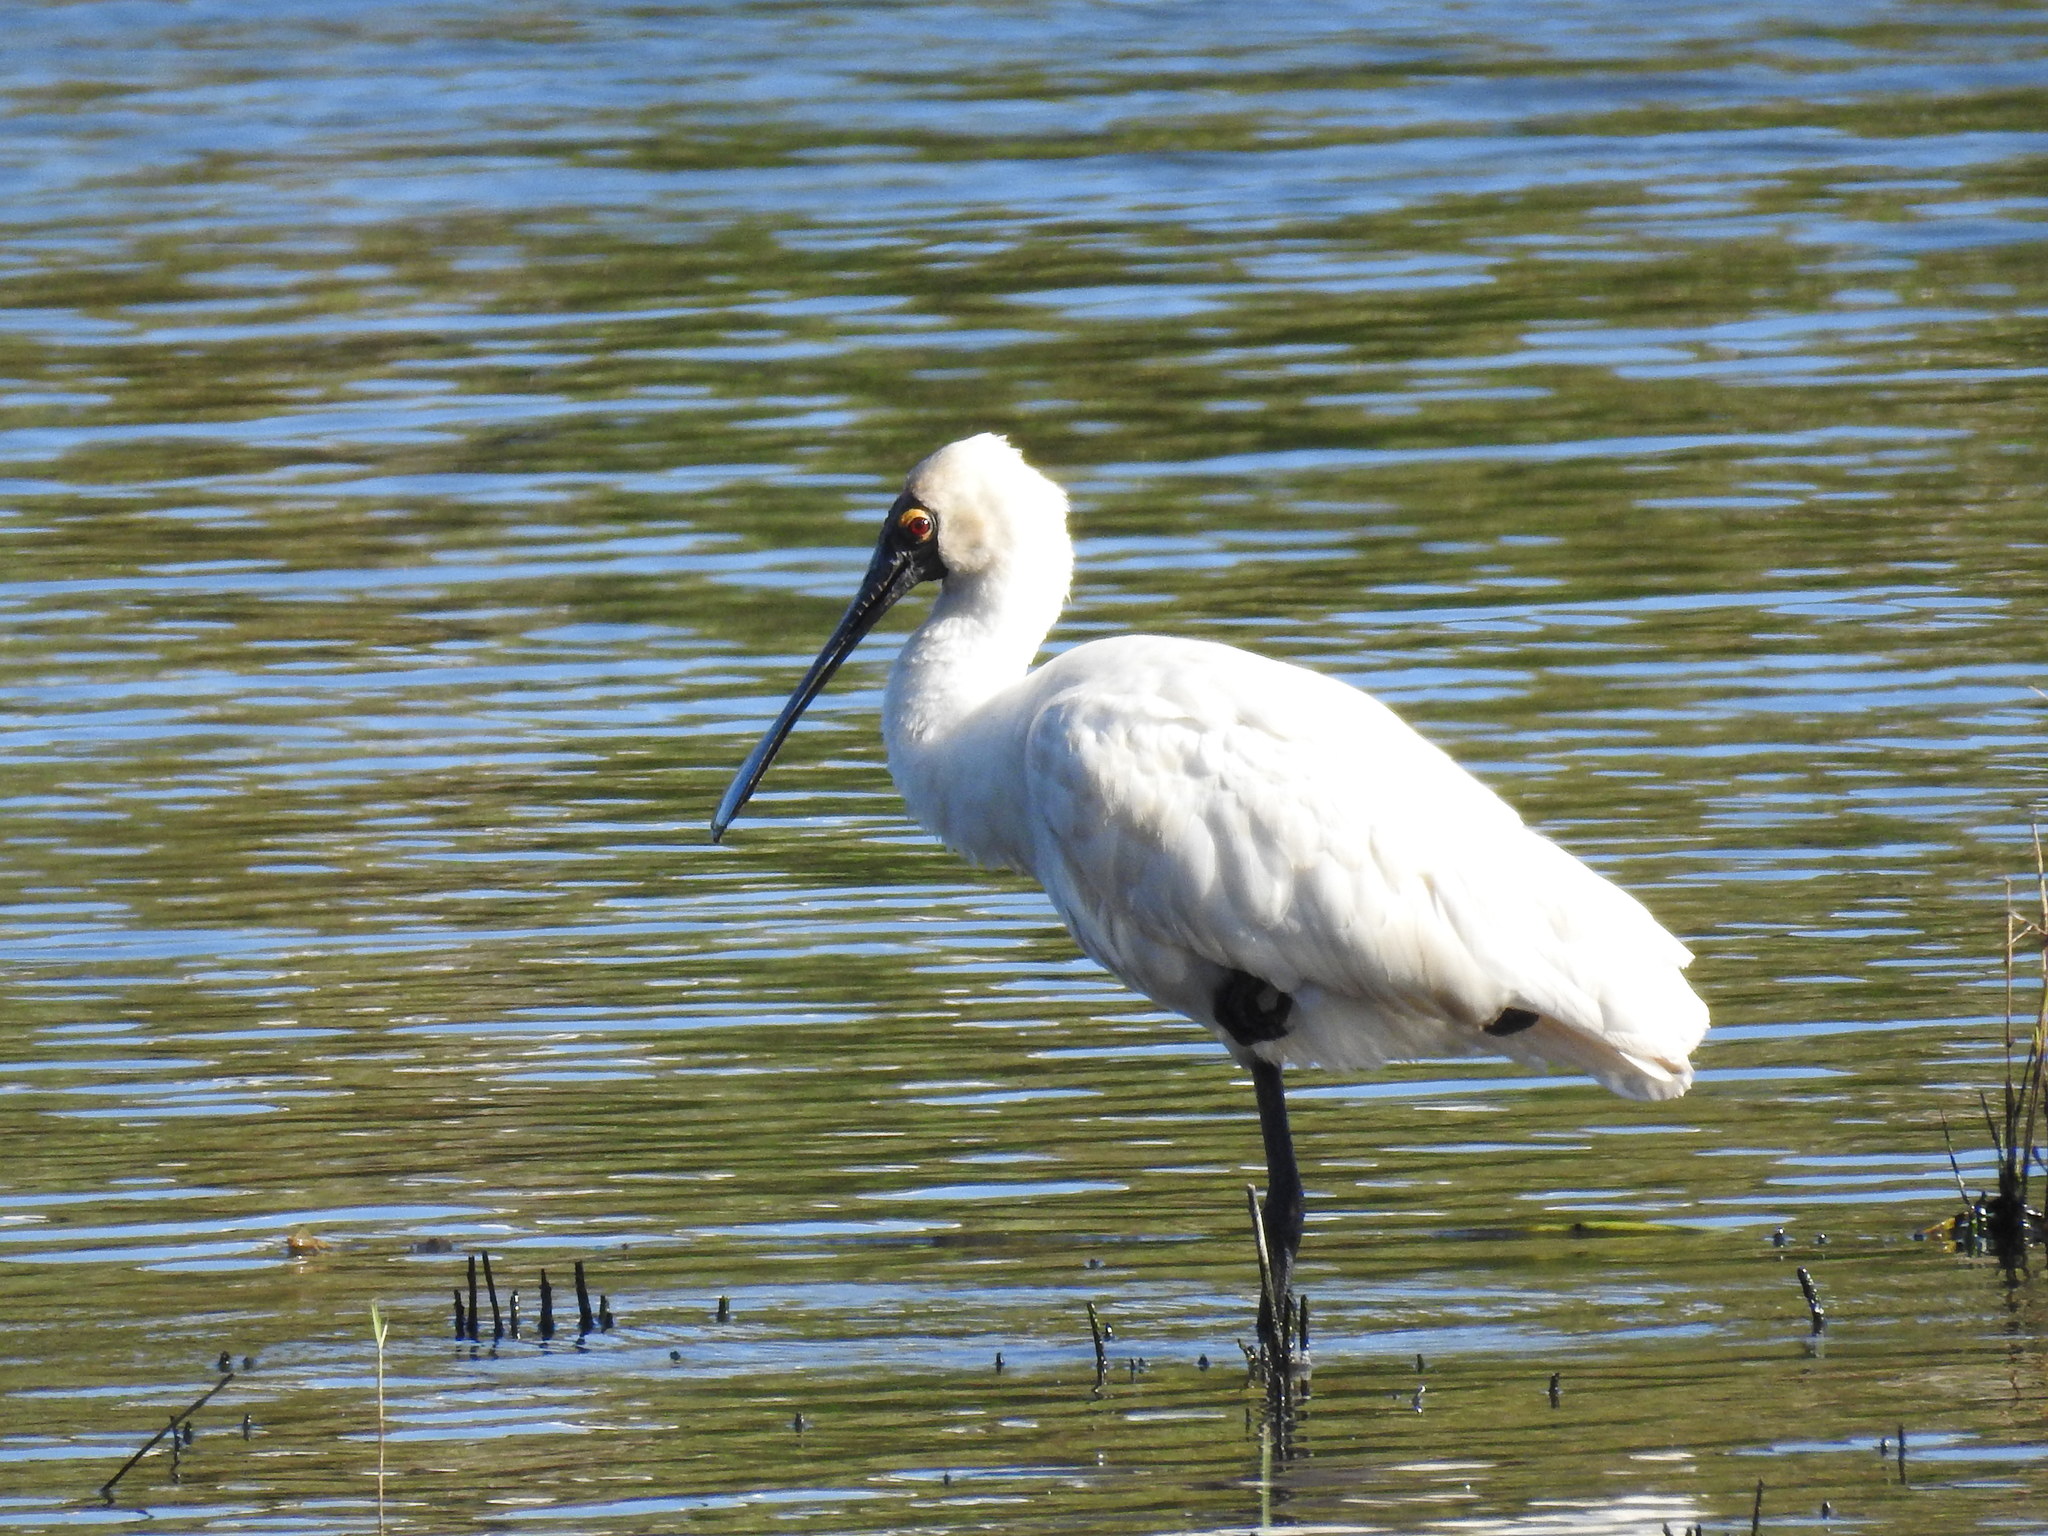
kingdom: Animalia
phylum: Chordata
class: Aves
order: Pelecaniformes
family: Threskiornithidae
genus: Platalea
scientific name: Platalea regia
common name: Royal spoonbill
